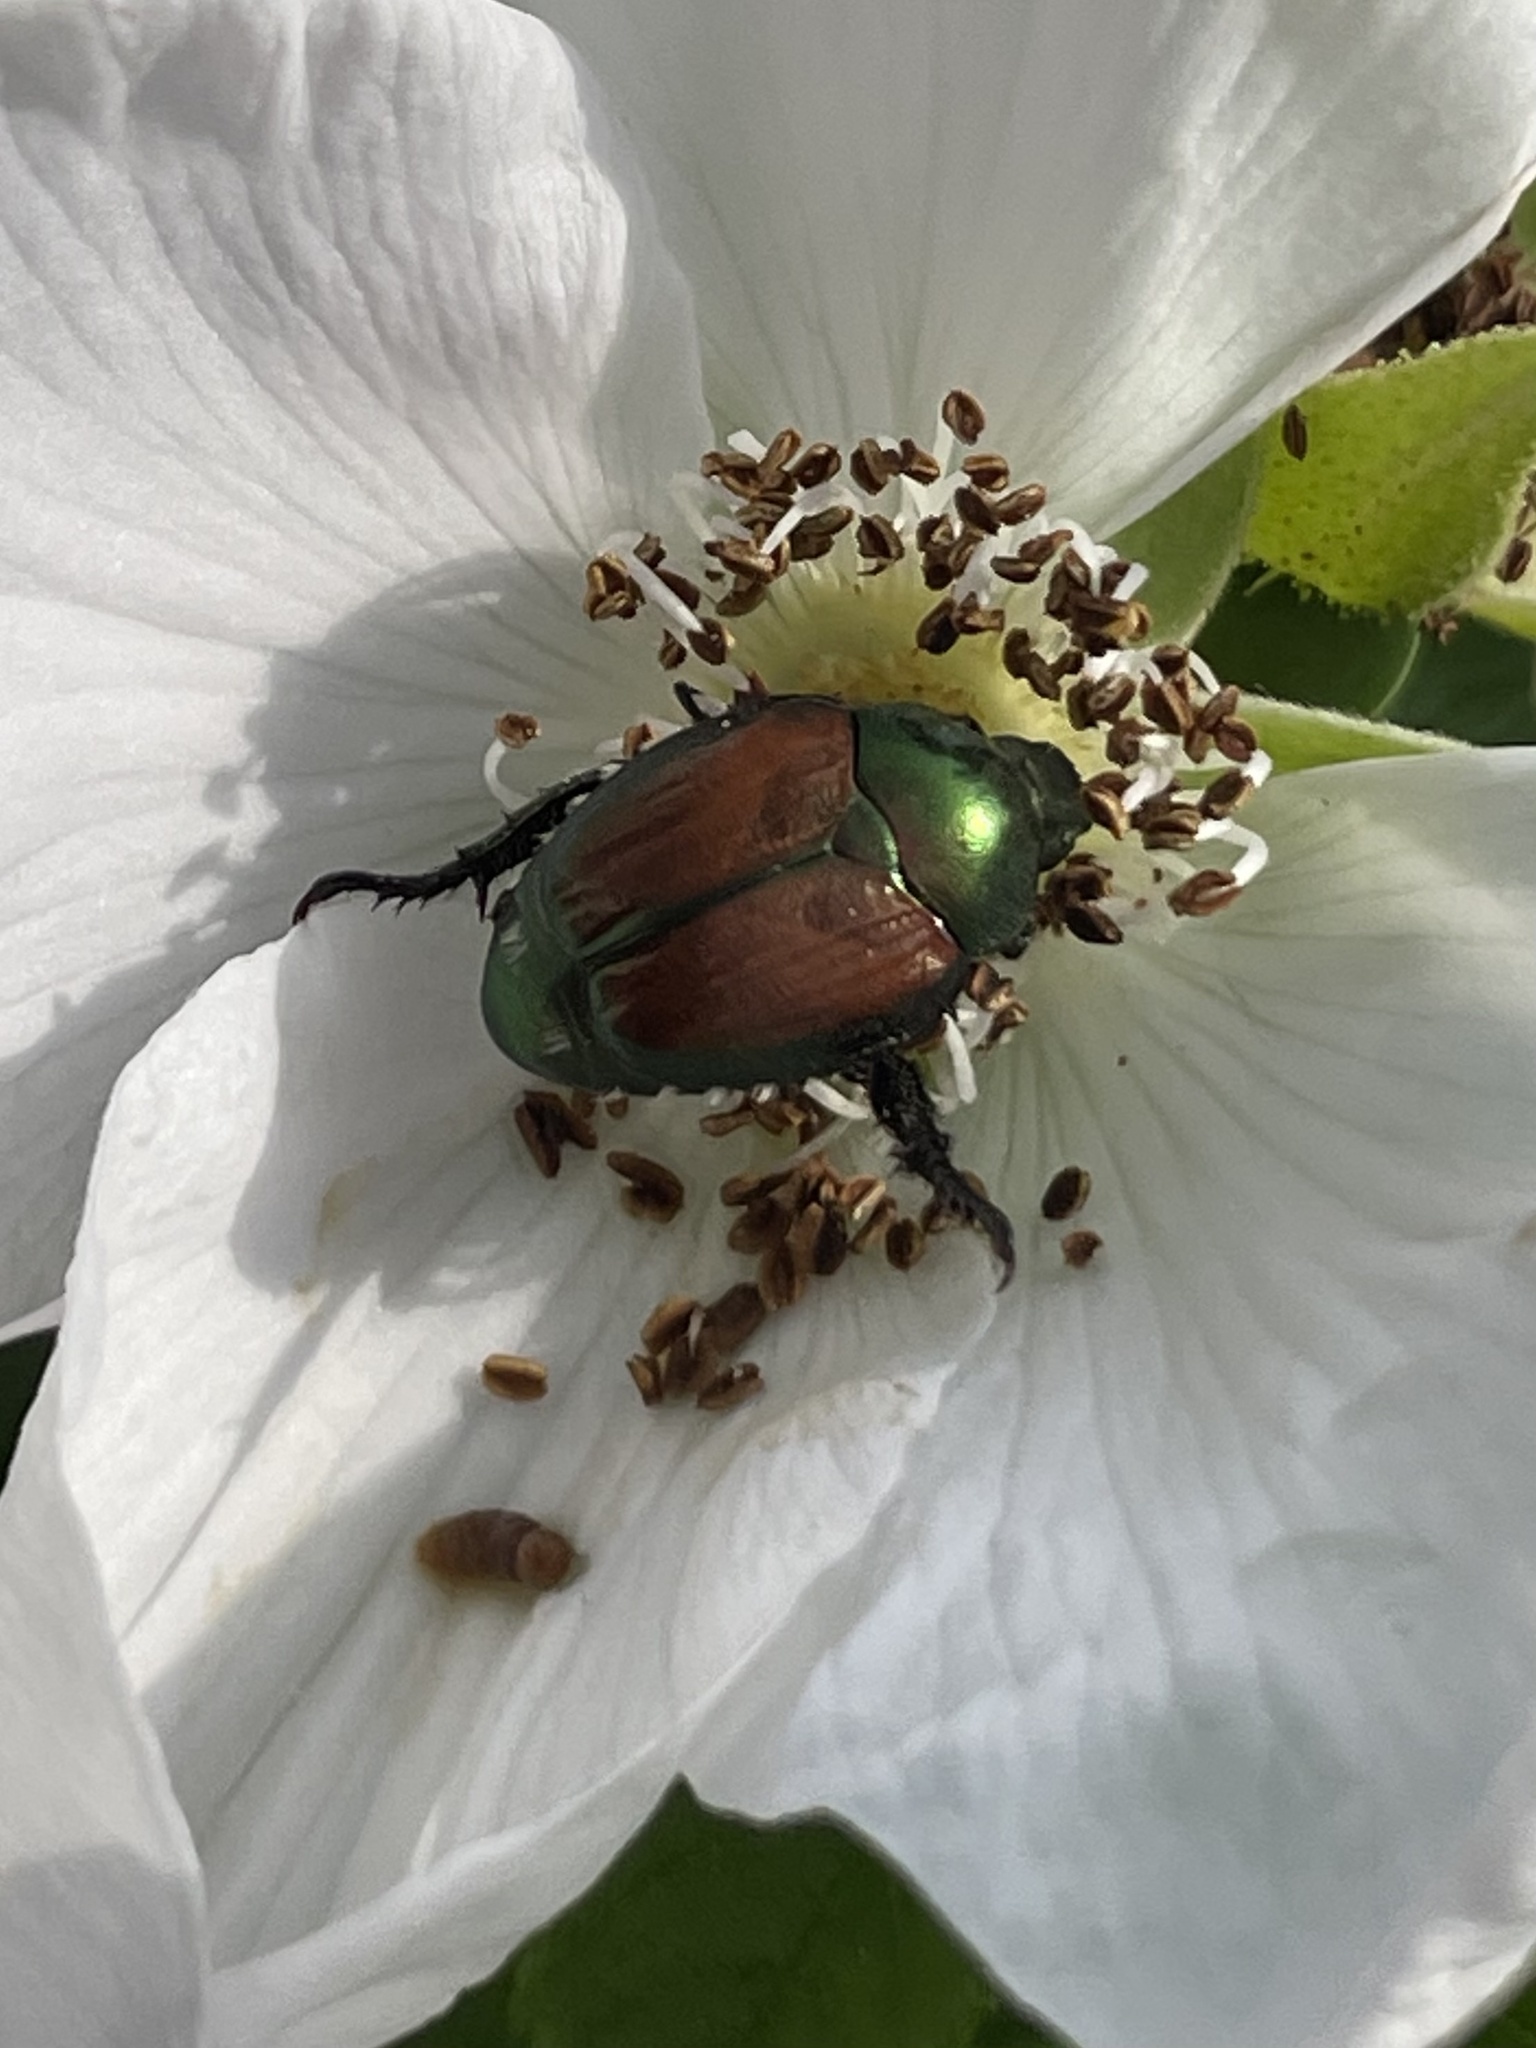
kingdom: Animalia
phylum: Arthropoda
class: Insecta
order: Coleoptera
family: Scarabaeidae
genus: Popillia
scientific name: Popillia japonica
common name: Japanese beetle
